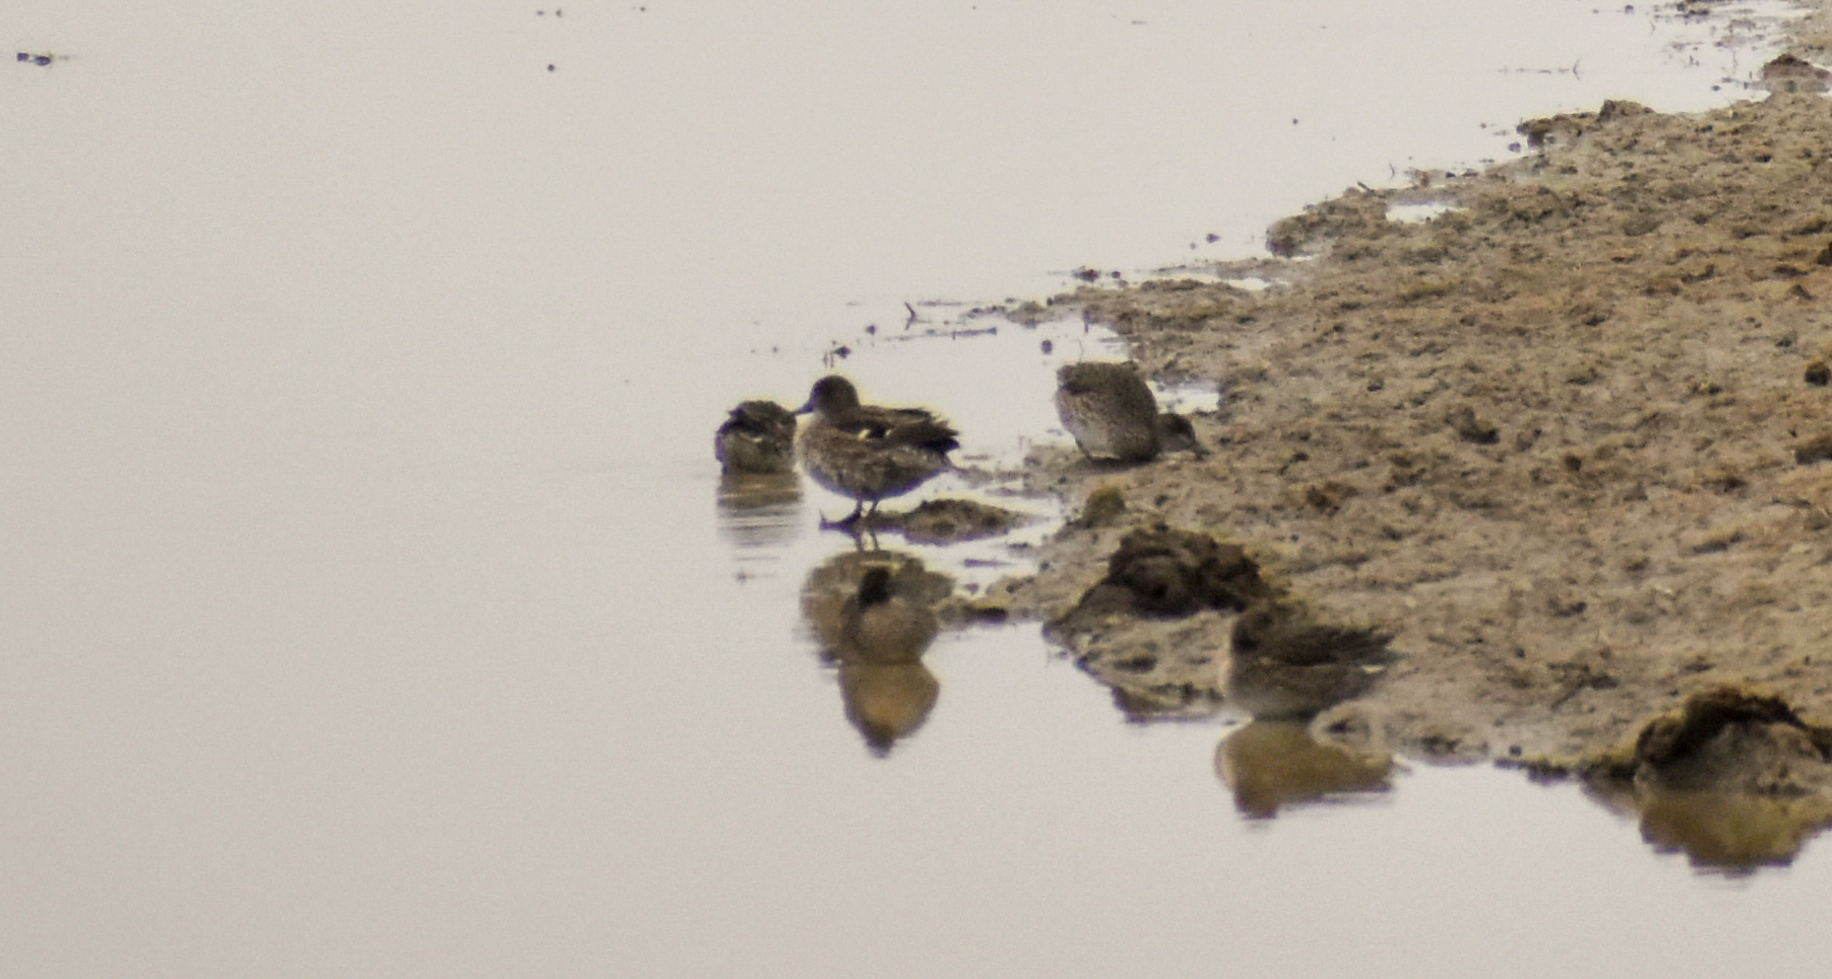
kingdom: Animalia
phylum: Chordata
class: Aves
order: Anseriformes
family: Anatidae
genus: Anas
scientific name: Anas crecca
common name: Eurasian teal
